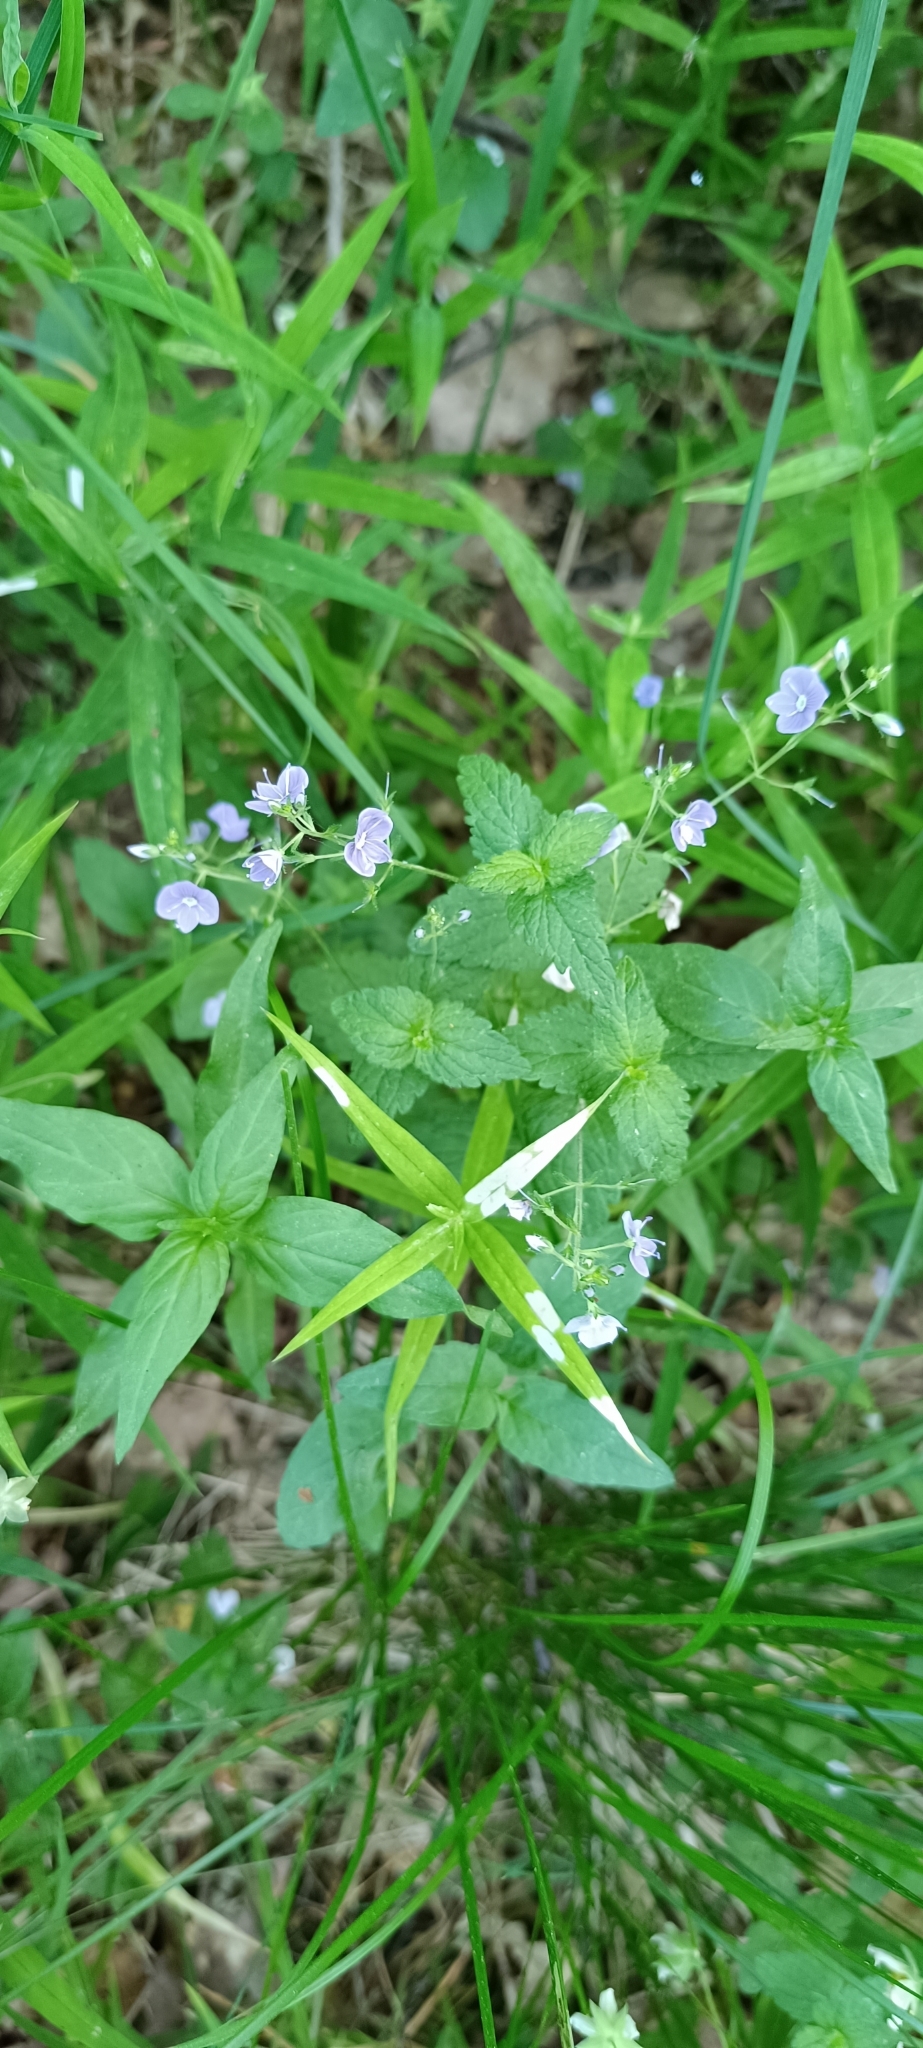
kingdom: Plantae
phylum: Tracheophyta
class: Magnoliopsida
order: Lamiales
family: Plantaginaceae
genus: Veronica
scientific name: Veronica chamaedrys
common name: Germander speedwell
